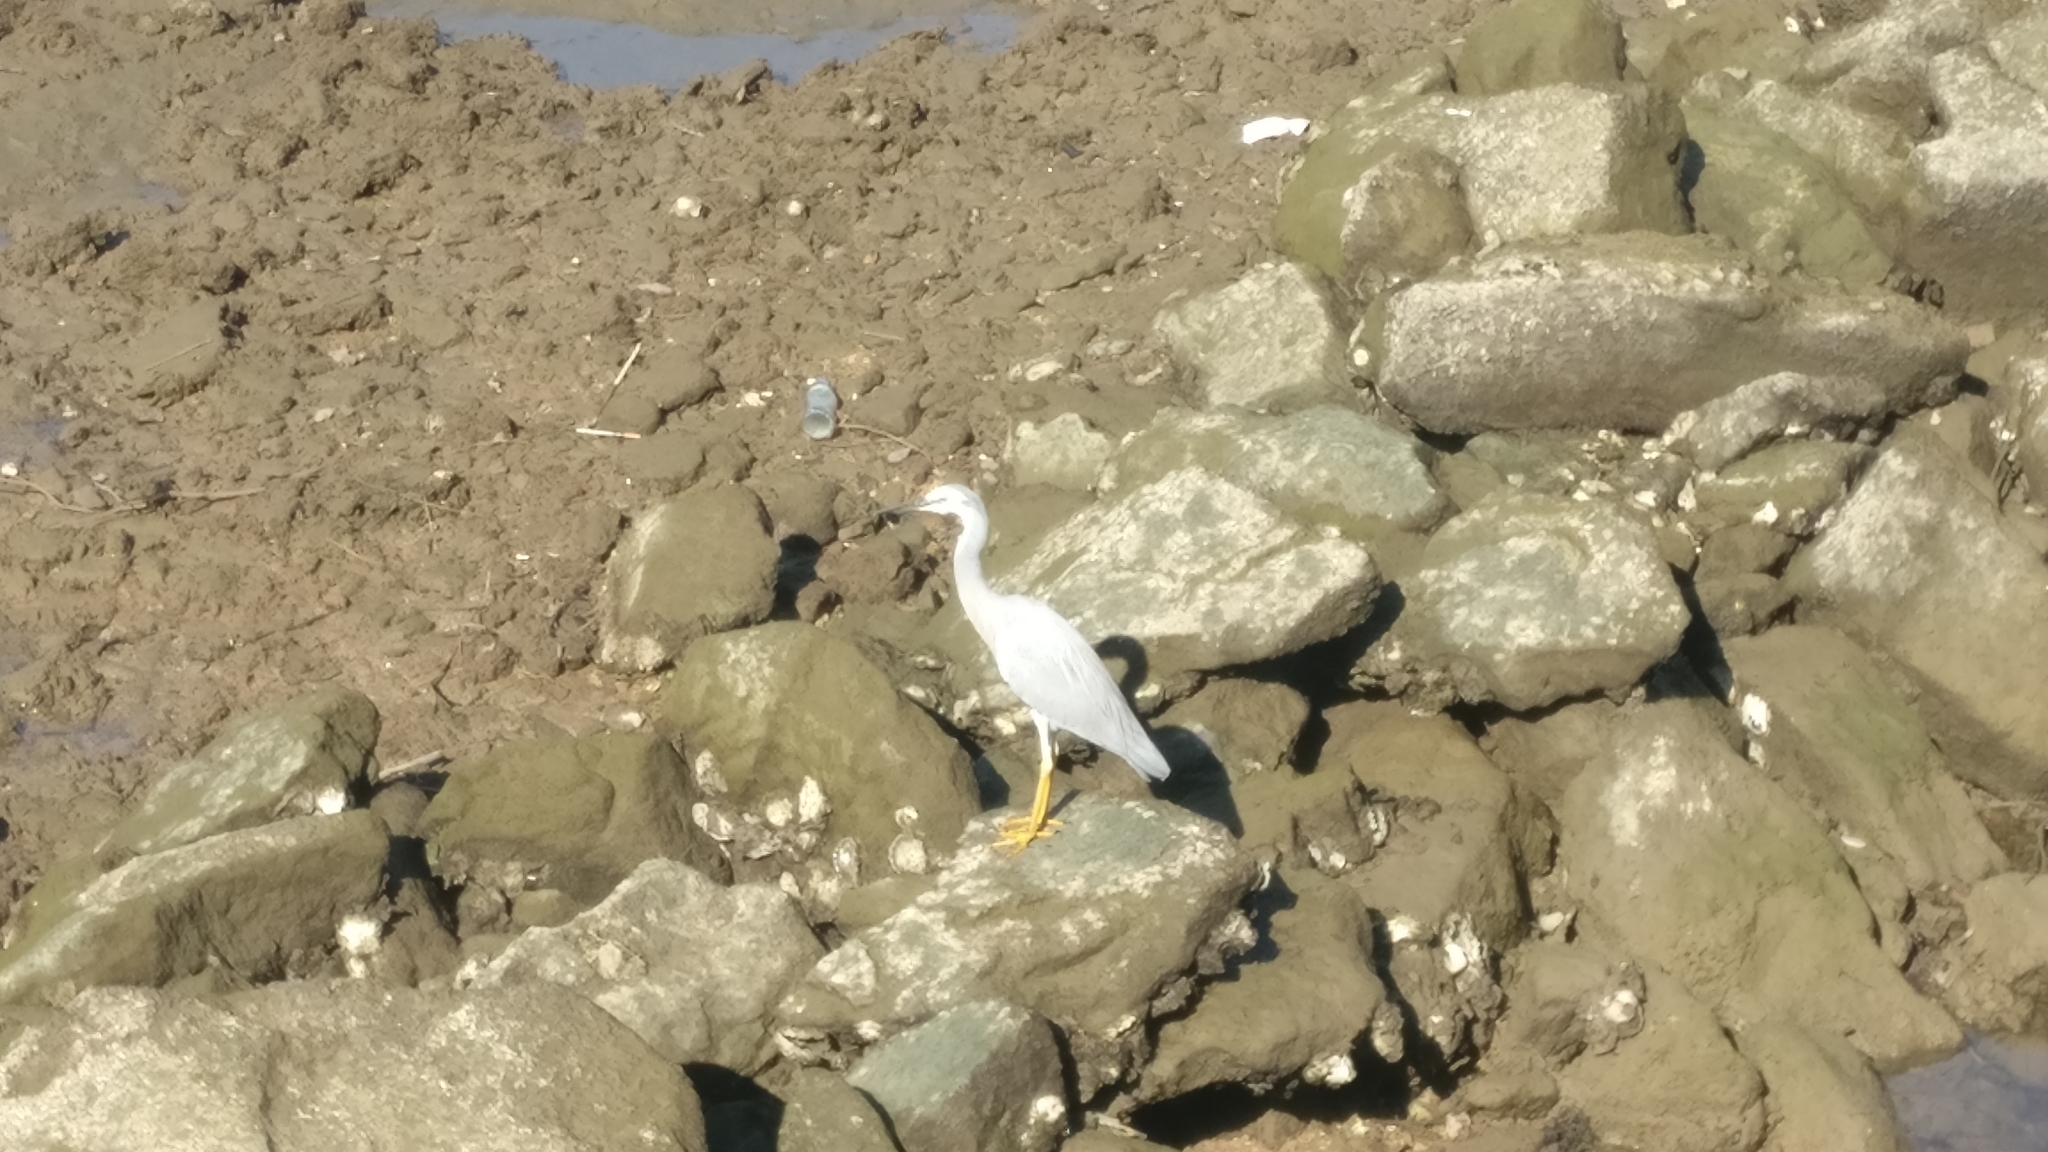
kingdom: Animalia
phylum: Chordata
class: Aves
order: Pelecaniformes
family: Ardeidae
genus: Egretta
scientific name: Egretta novaehollandiae
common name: White-faced heron
